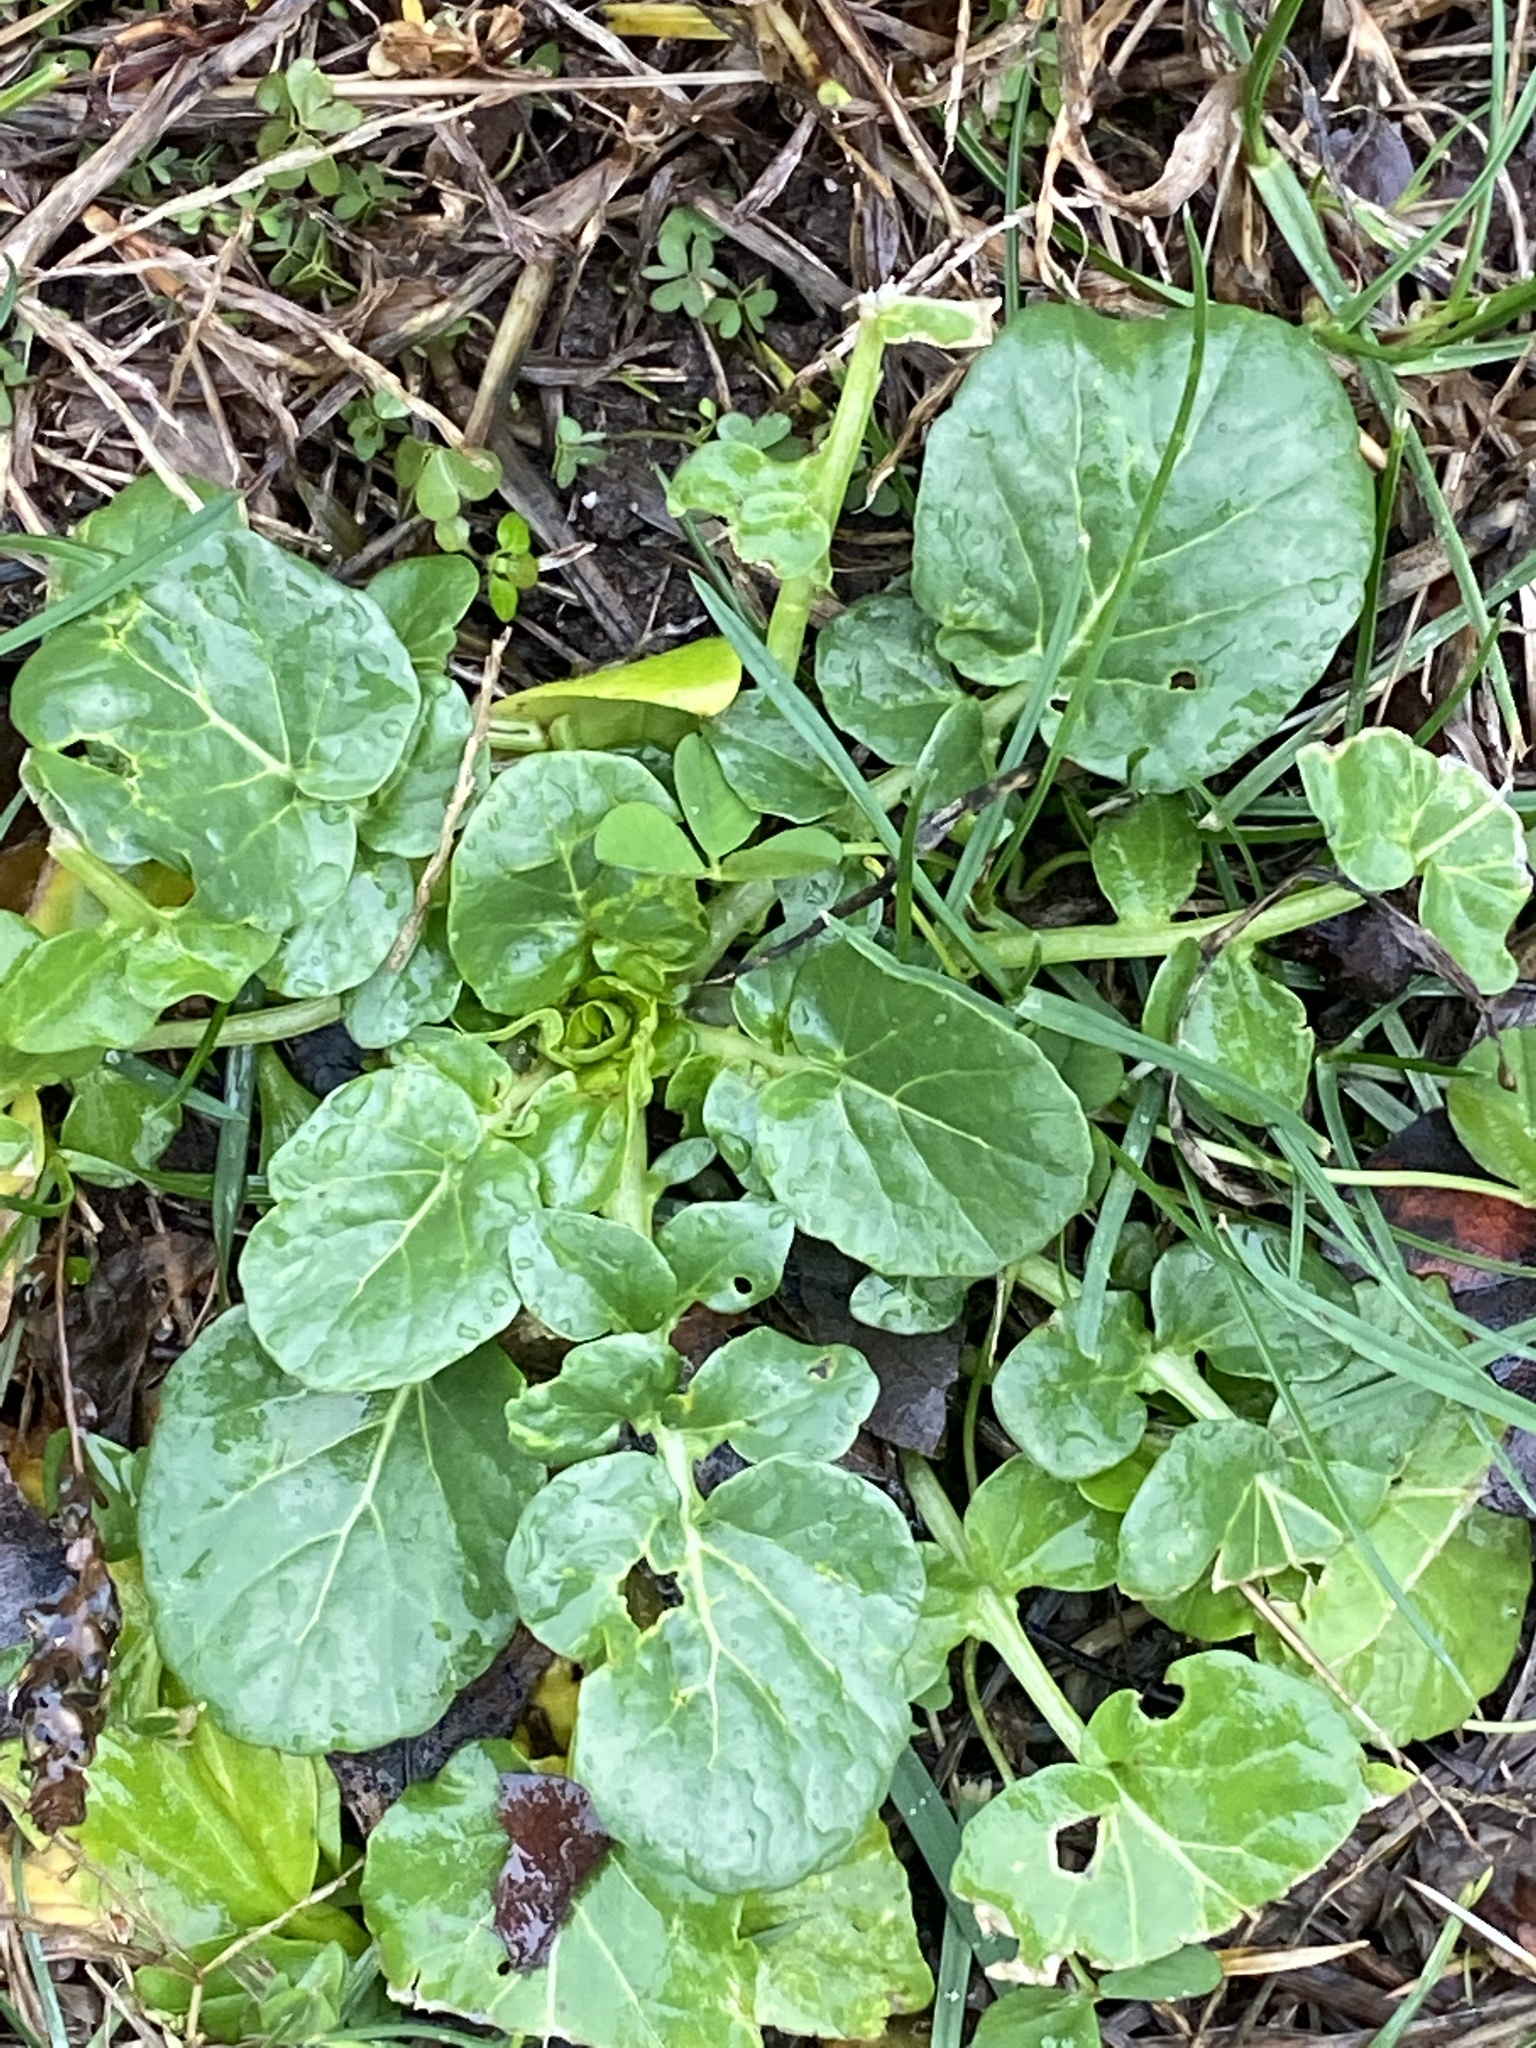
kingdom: Plantae
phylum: Tracheophyta
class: Magnoliopsida
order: Brassicales
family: Brassicaceae
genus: Barbarea
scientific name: Barbarea vulgaris
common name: Cressy-greens
